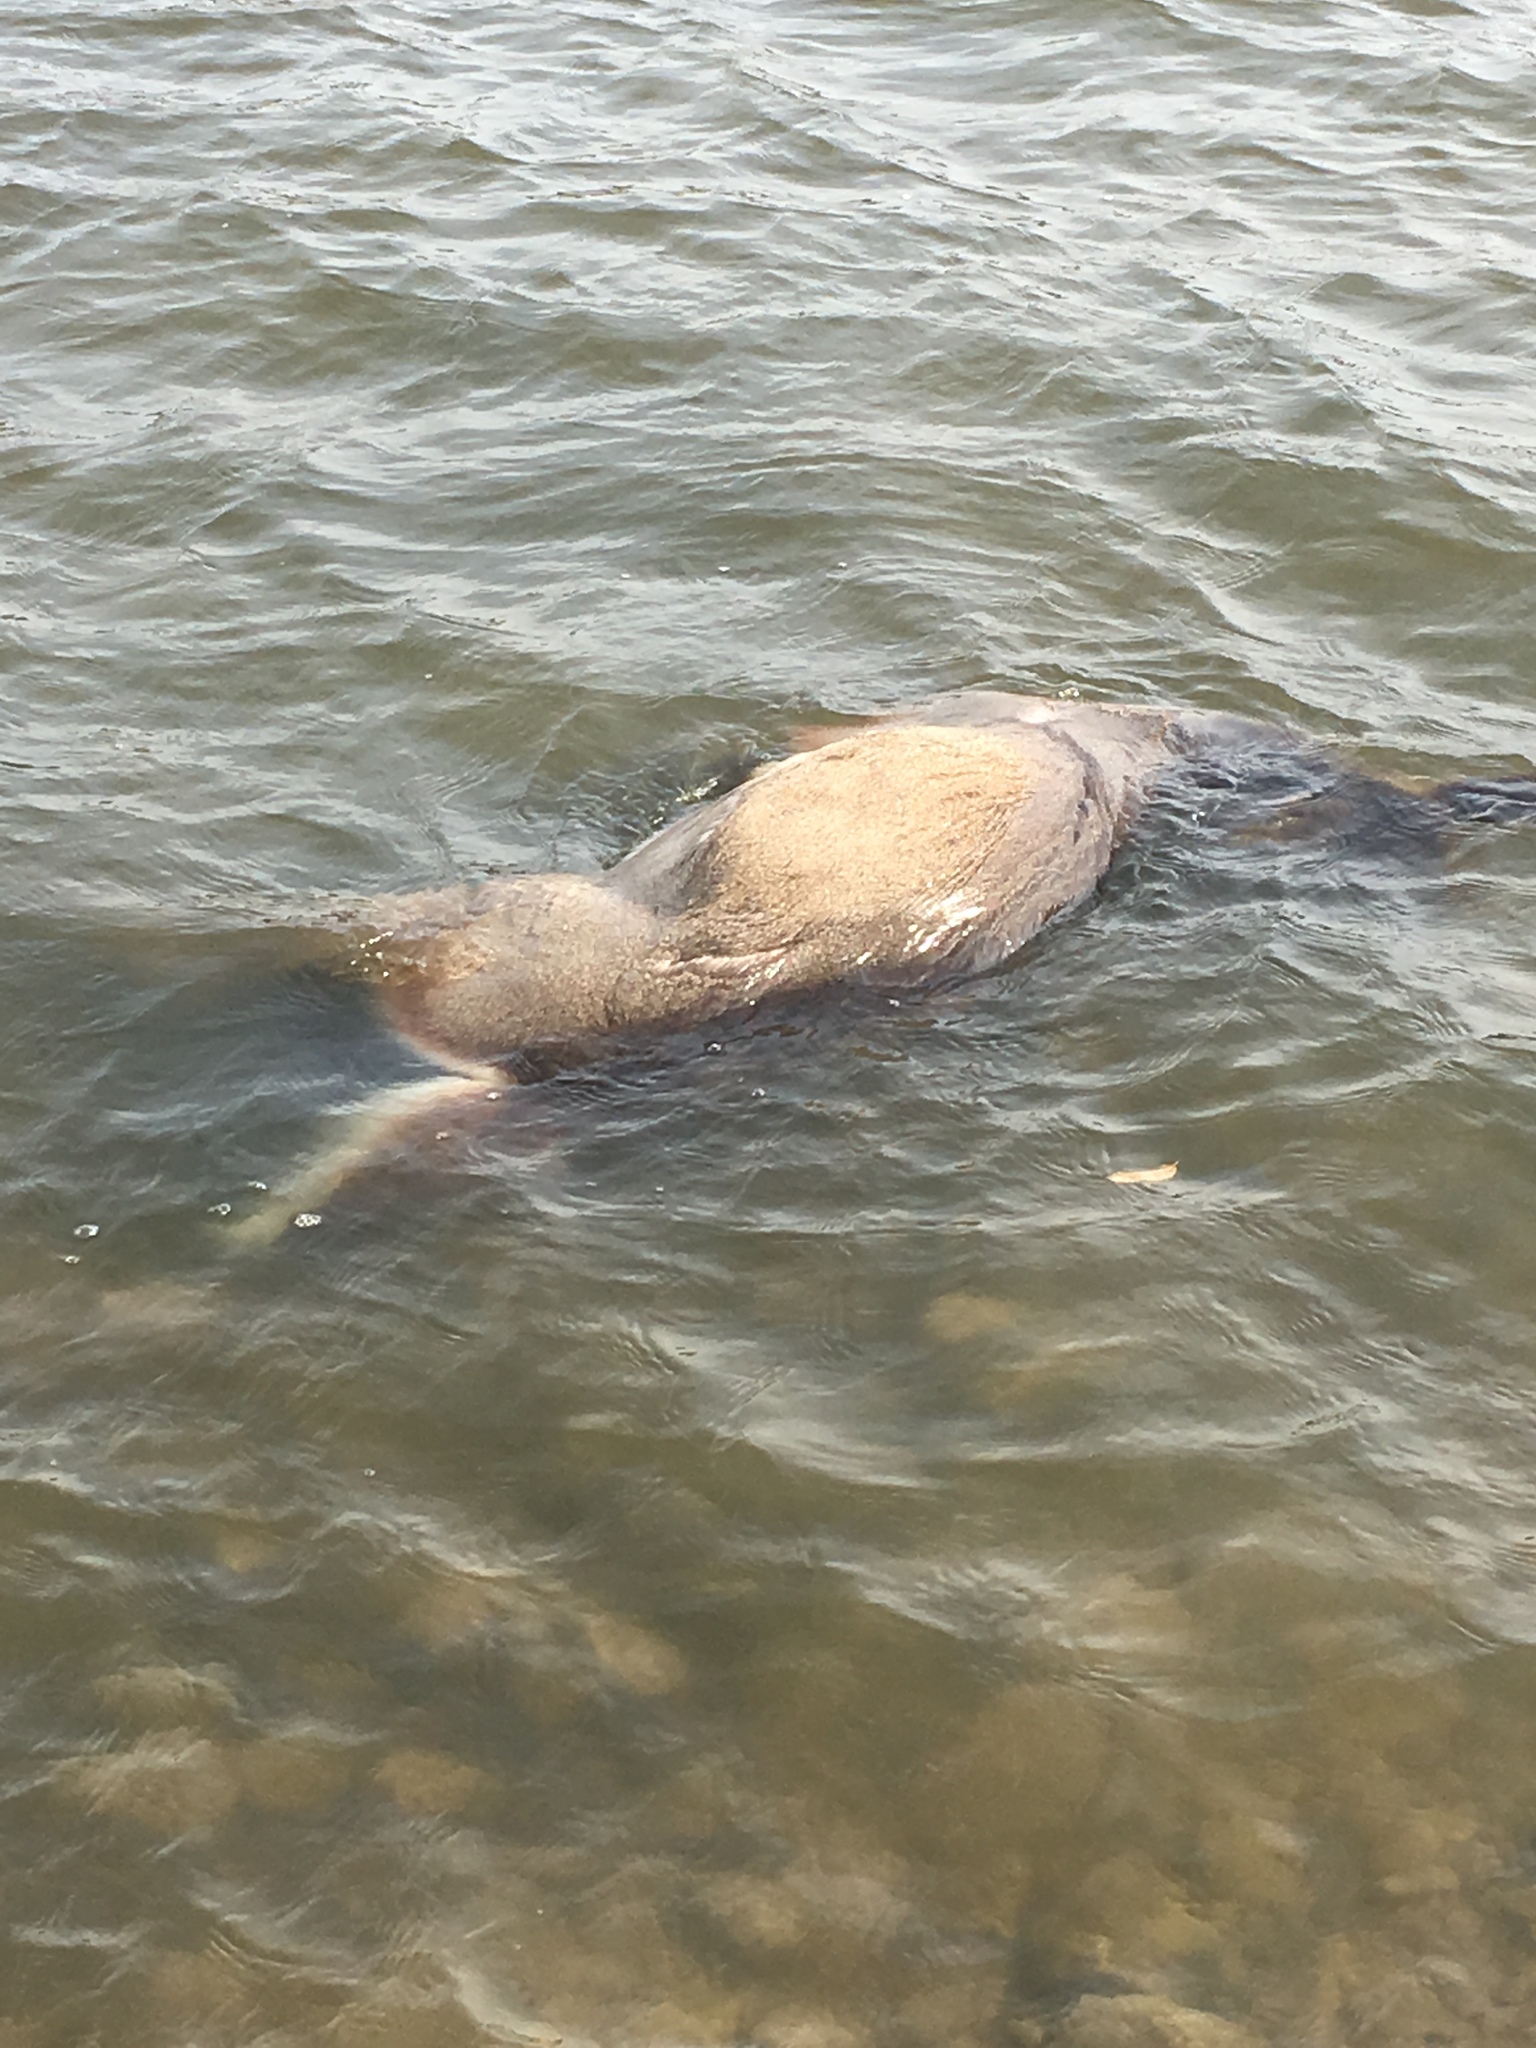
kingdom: Animalia
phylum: Chordata
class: Mammalia
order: Artiodactyla
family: Cervidae
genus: Odocoileus
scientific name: Odocoileus virginianus
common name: White-tailed deer
